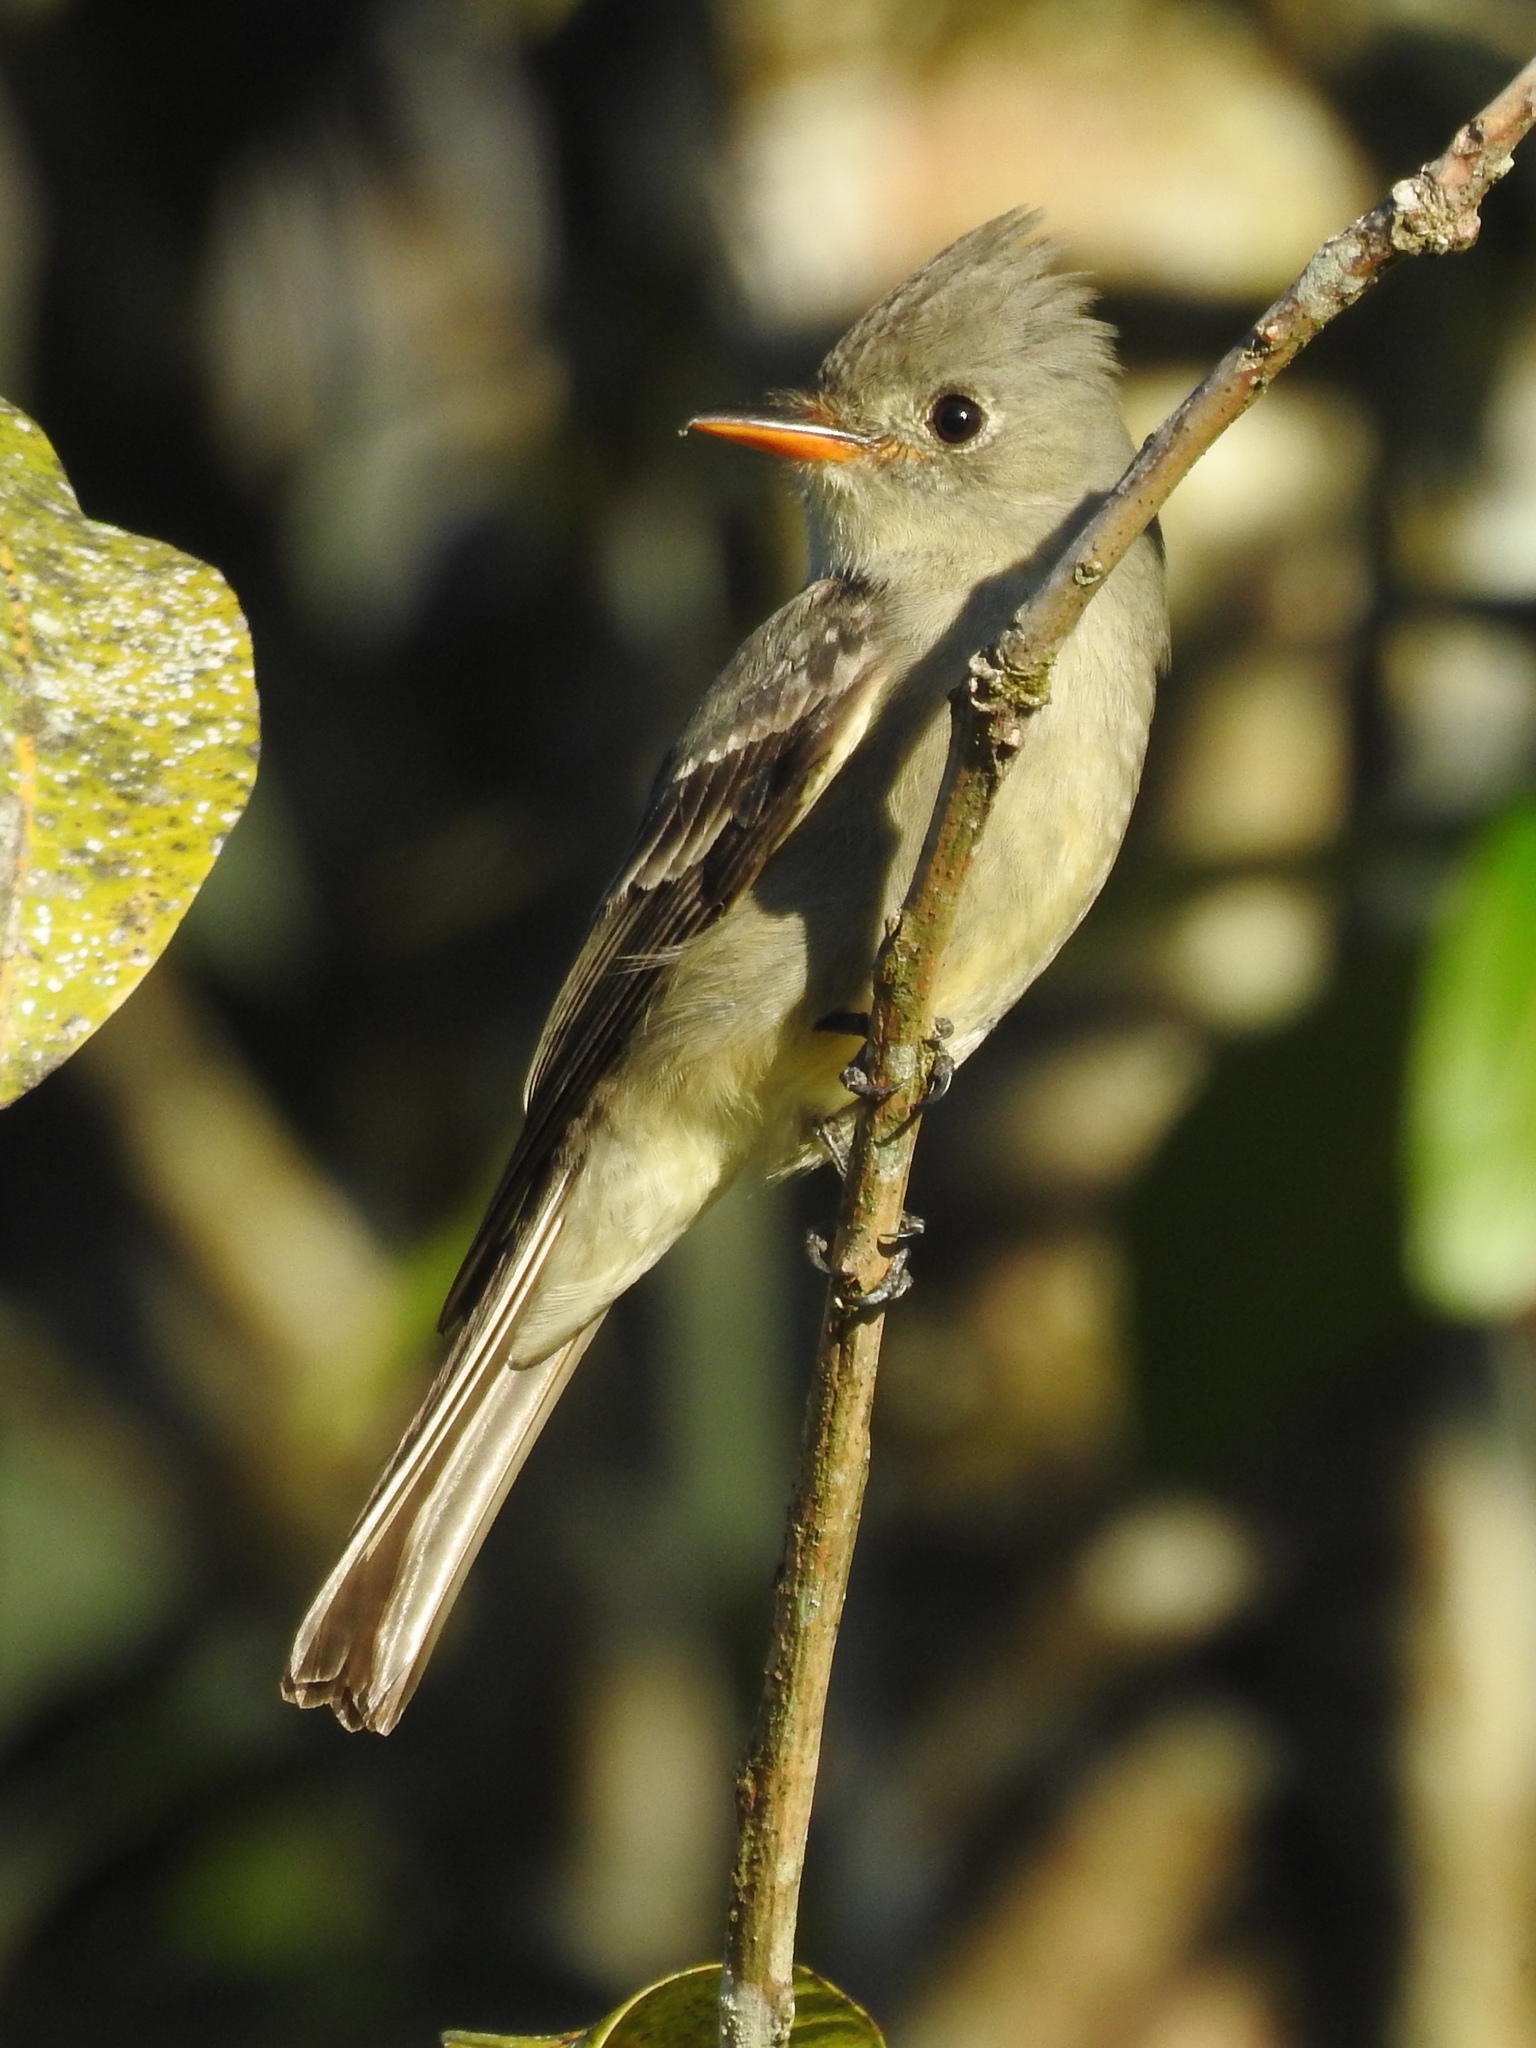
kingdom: Animalia
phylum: Chordata
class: Aves
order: Passeriformes
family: Tyrannidae
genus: Contopus
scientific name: Contopus pertinax
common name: Greater pewee
